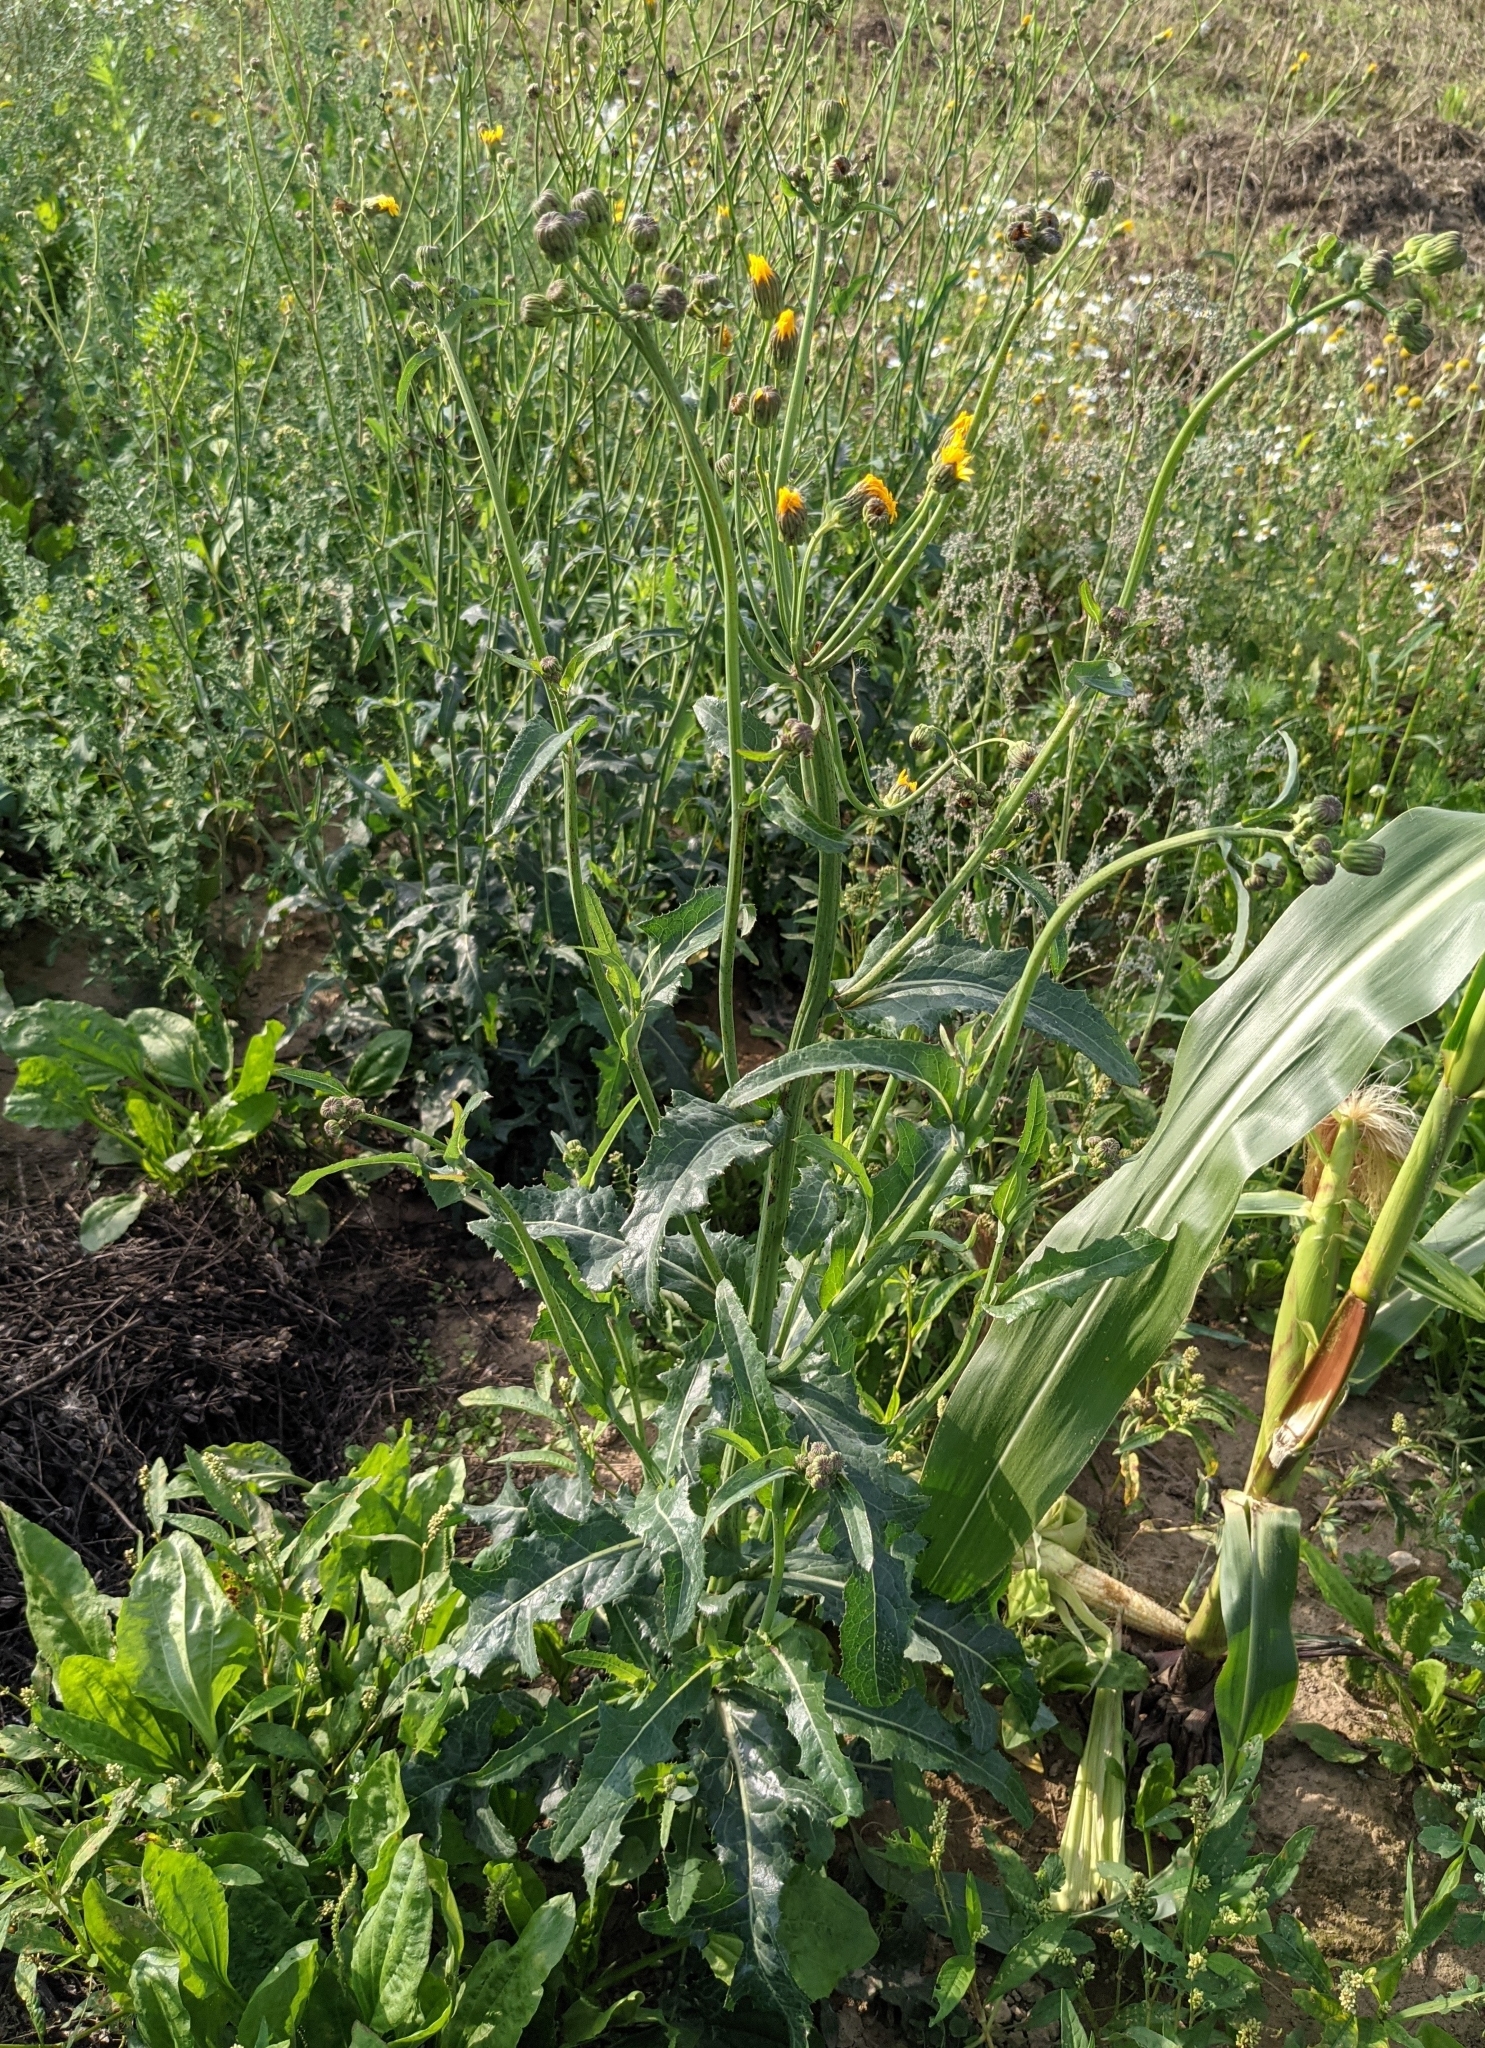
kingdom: Plantae
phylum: Tracheophyta
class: Magnoliopsida
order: Asterales
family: Asteraceae
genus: Sonchus
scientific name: Sonchus arvensis
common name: Perennial sow-thistle
